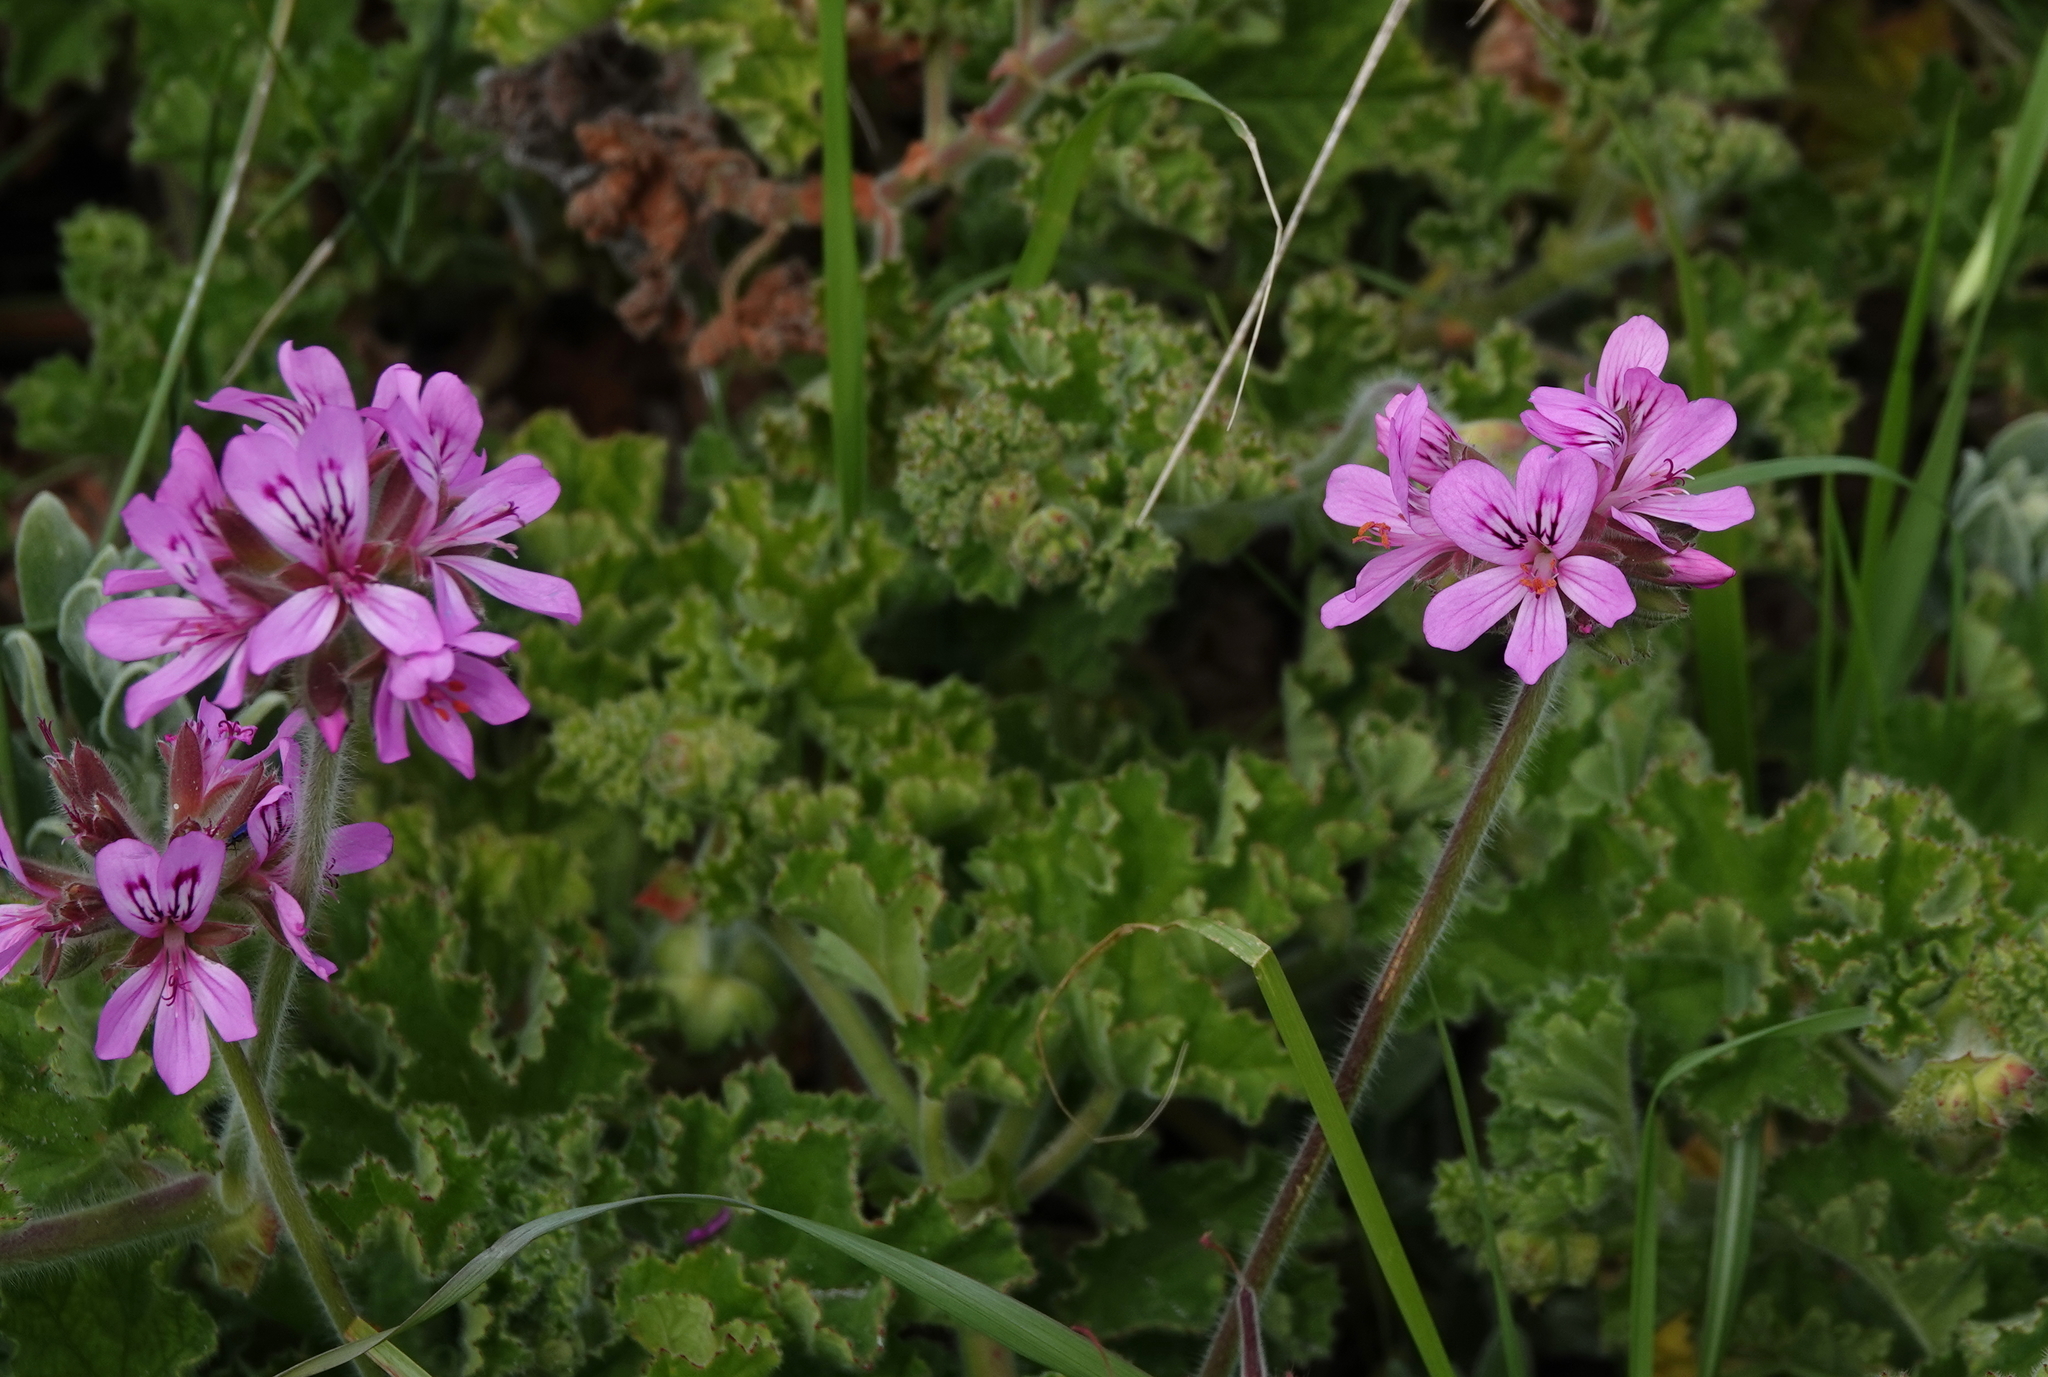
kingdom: Plantae
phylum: Tracheophyta
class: Magnoliopsida
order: Geraniales
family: Geraniaceae
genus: Pelargonium
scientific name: Pelargonium capitatum
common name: Rose scented geranium
